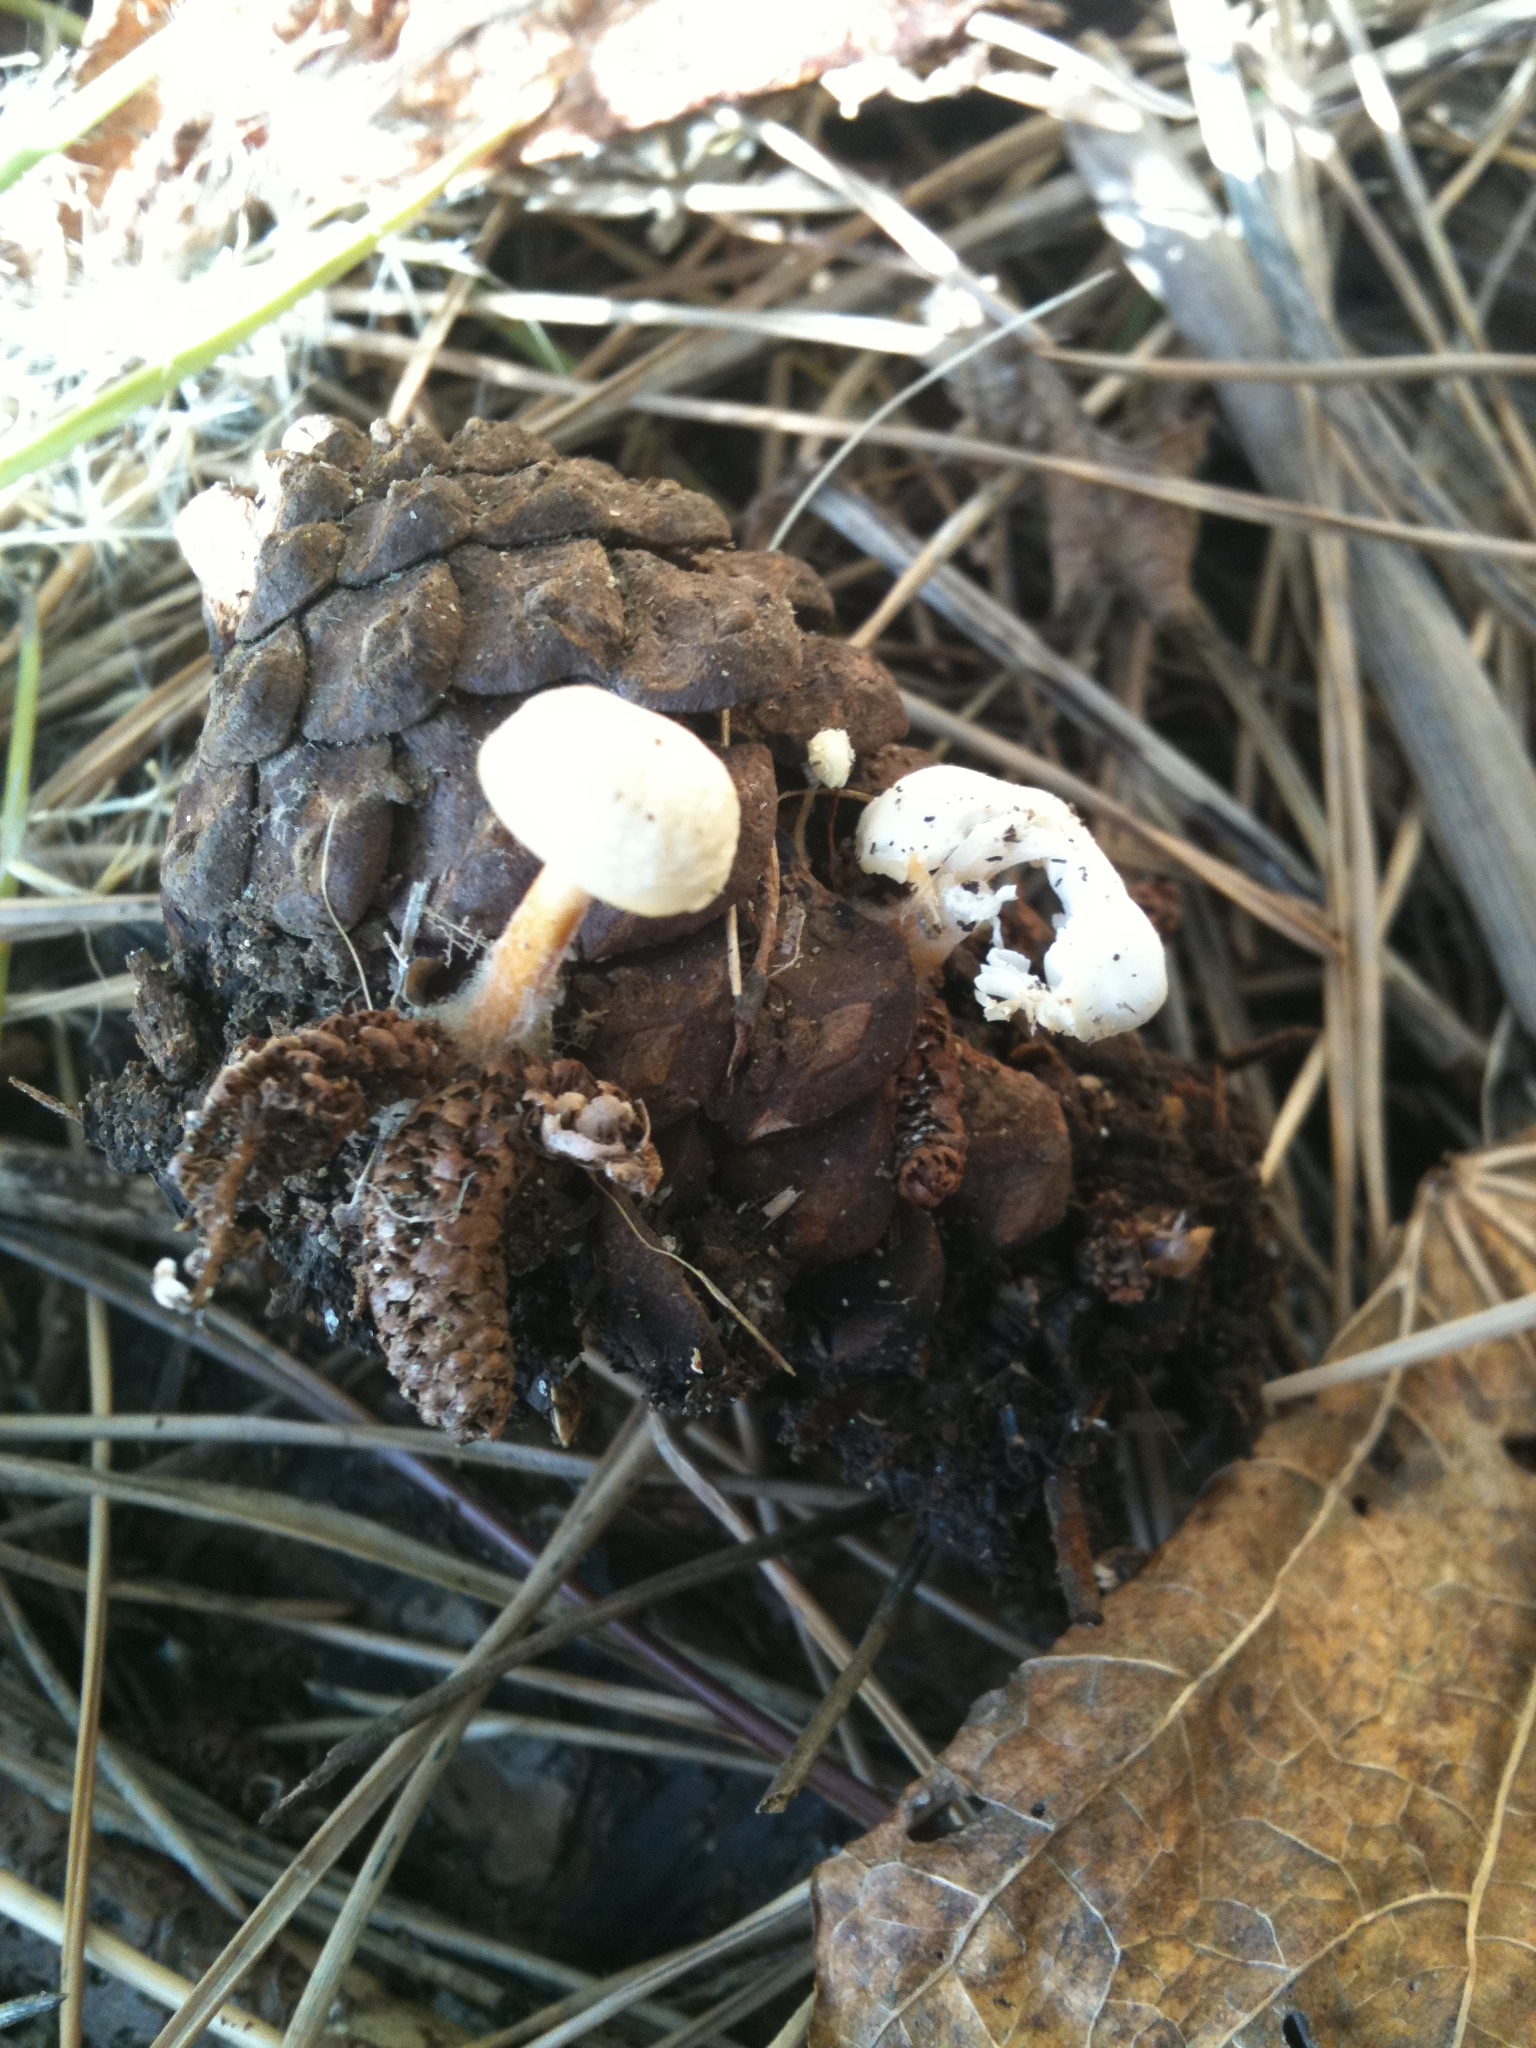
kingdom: Fungi
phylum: Basidiomycota
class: Agaricomycetes
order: Agaricales
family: Physalacriaceae
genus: Strobilurus
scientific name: Strobilurus stephanocystis
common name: Russian conecap
